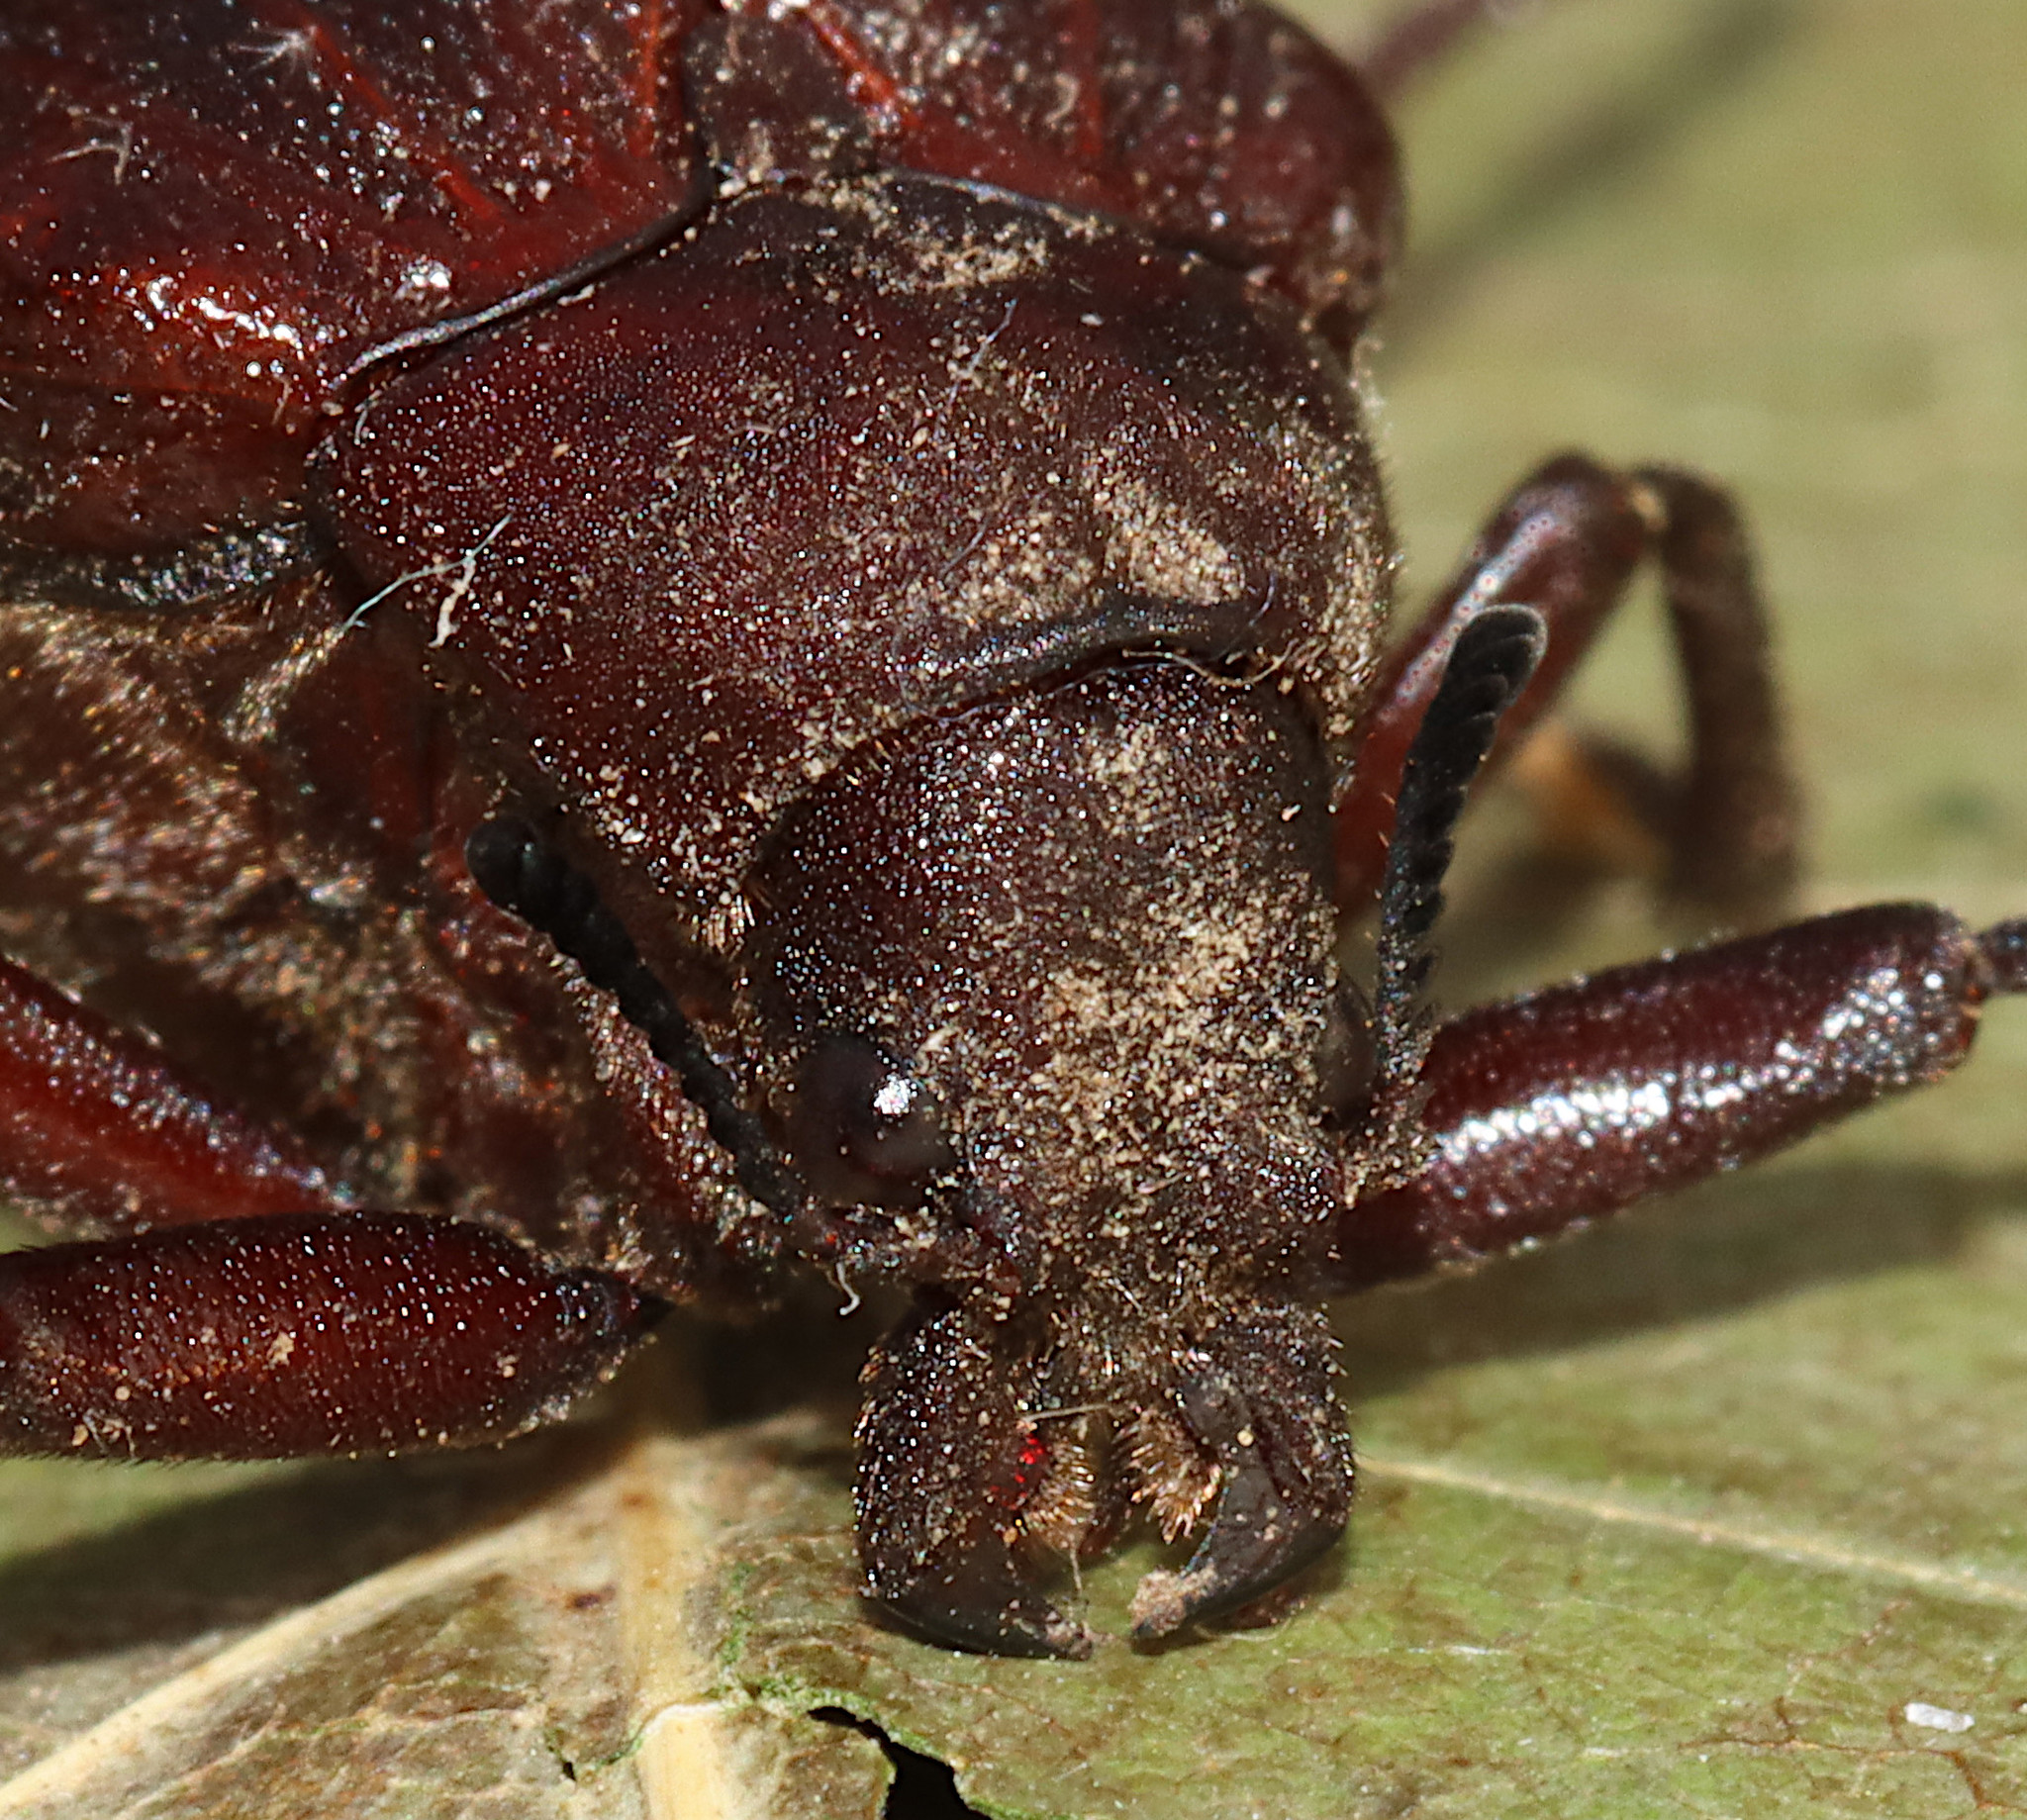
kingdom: Animalia
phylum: Arthropoda
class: Insecta
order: Coleoptera
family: Rhipiceridae
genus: Sandalus
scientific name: Sandalus niger
